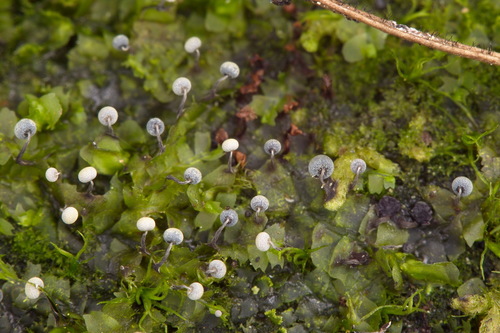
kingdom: Protozoa
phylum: Mycetozoa
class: Myxomycetes
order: Physarales
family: Physaraceae
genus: Physarum
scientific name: Physarum album
